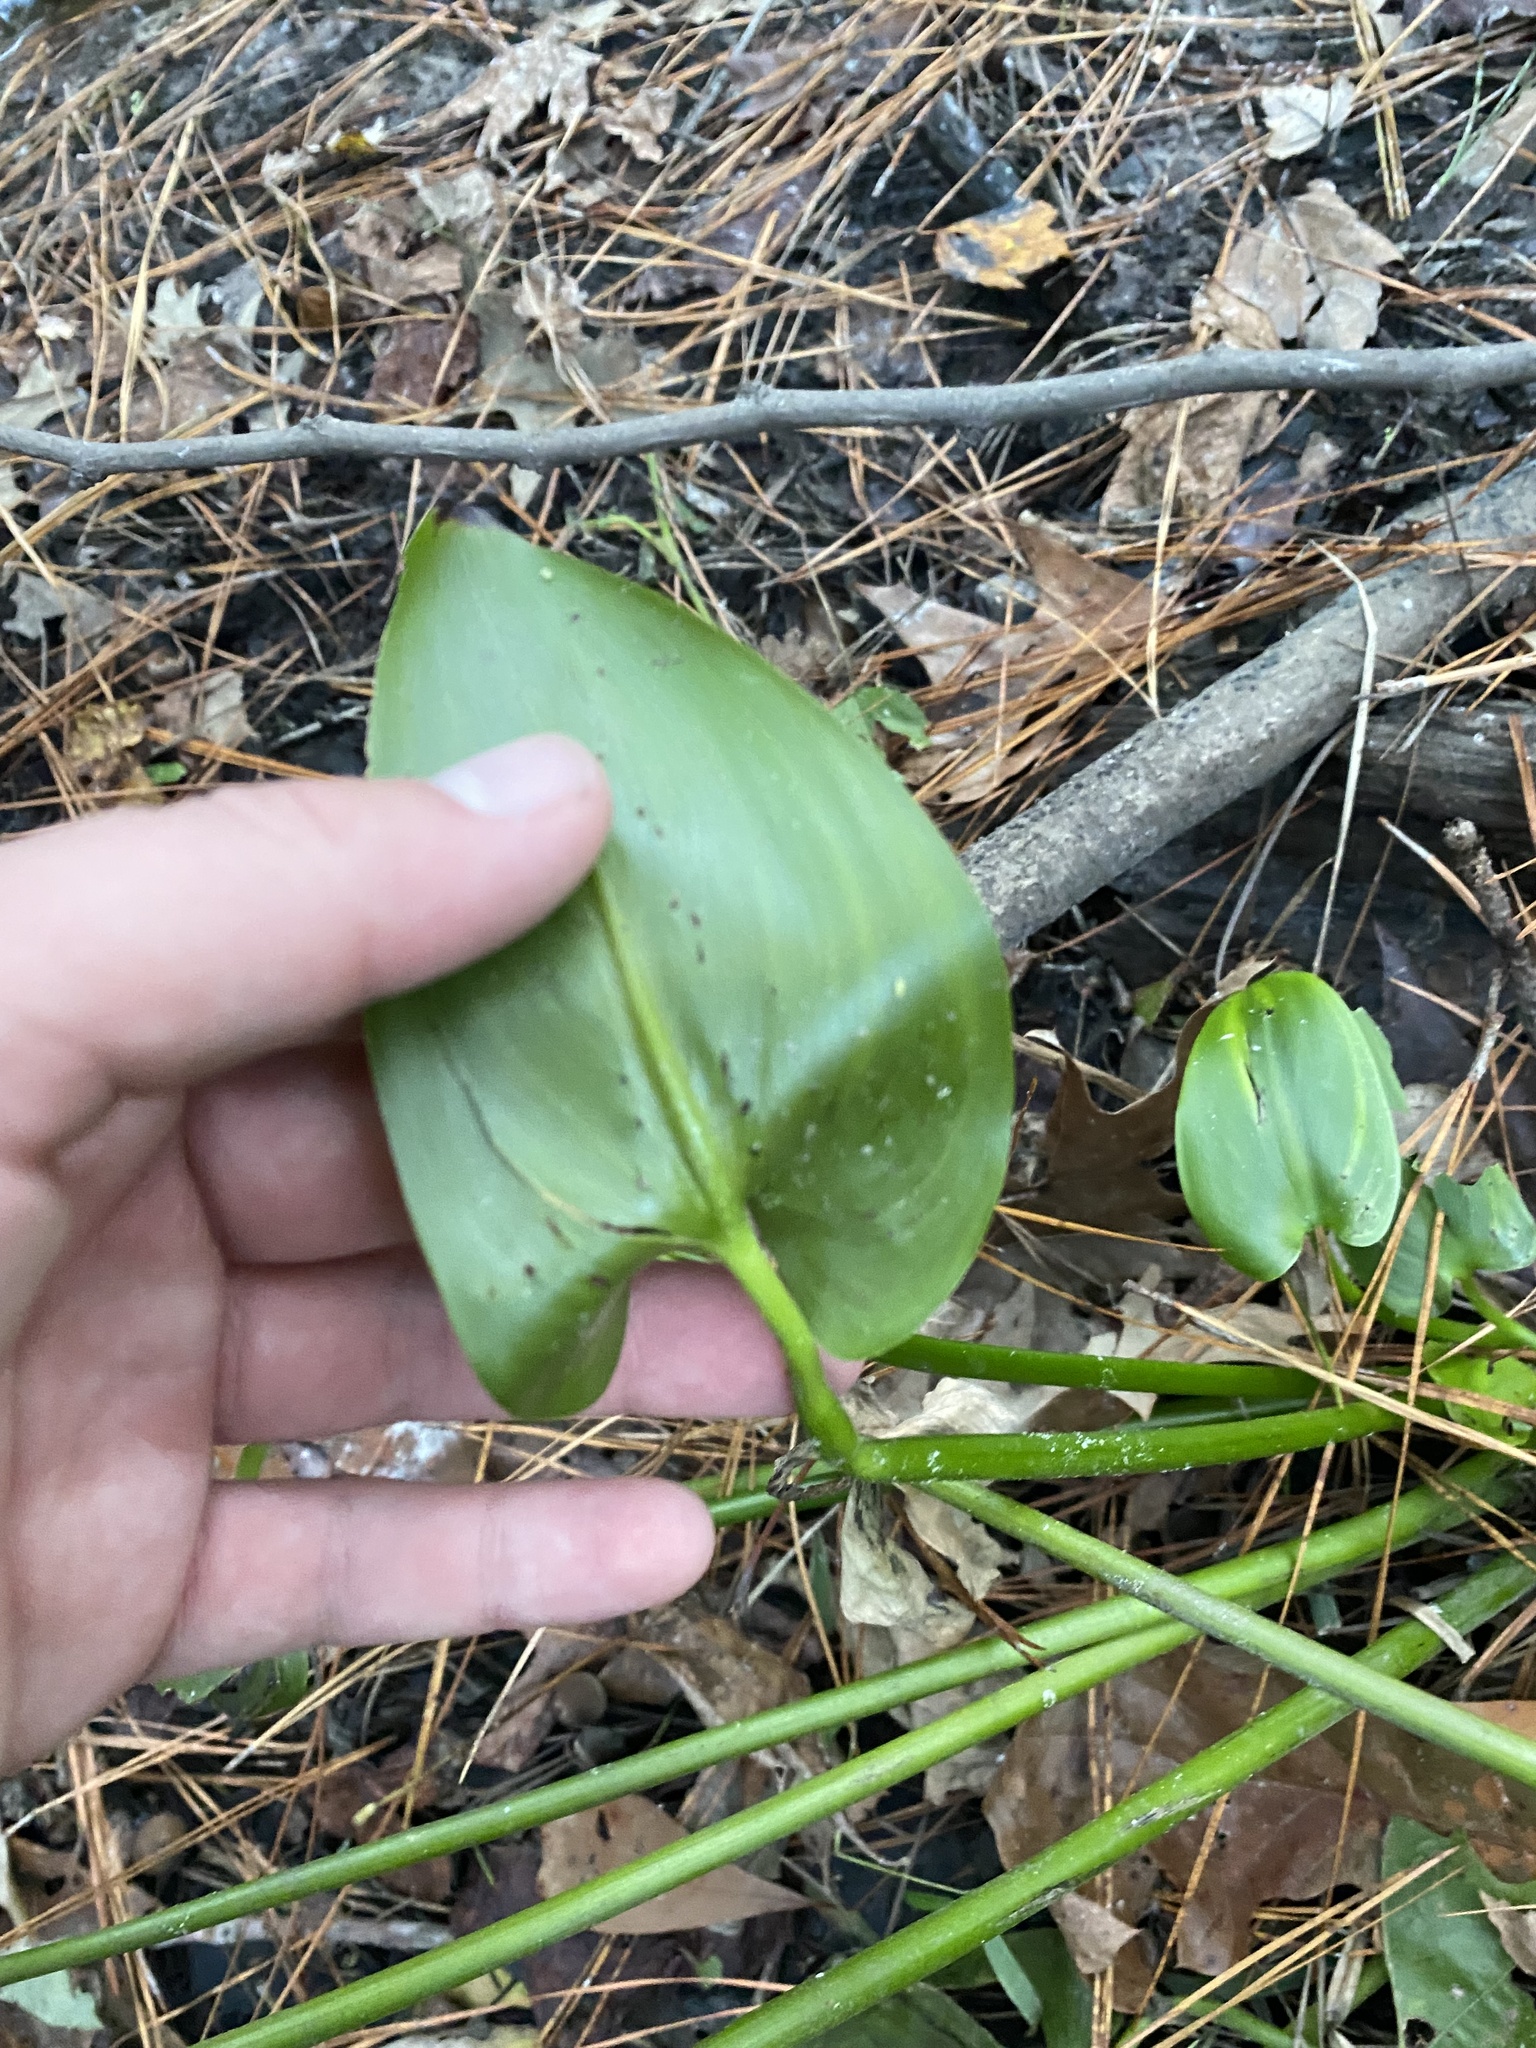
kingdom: Plantae
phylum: Tracheophyta
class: Liliopsida
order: Commelinales
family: Pontederiaceae
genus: Pontederia
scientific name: Pontederia cordata
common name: Pickerelweed
